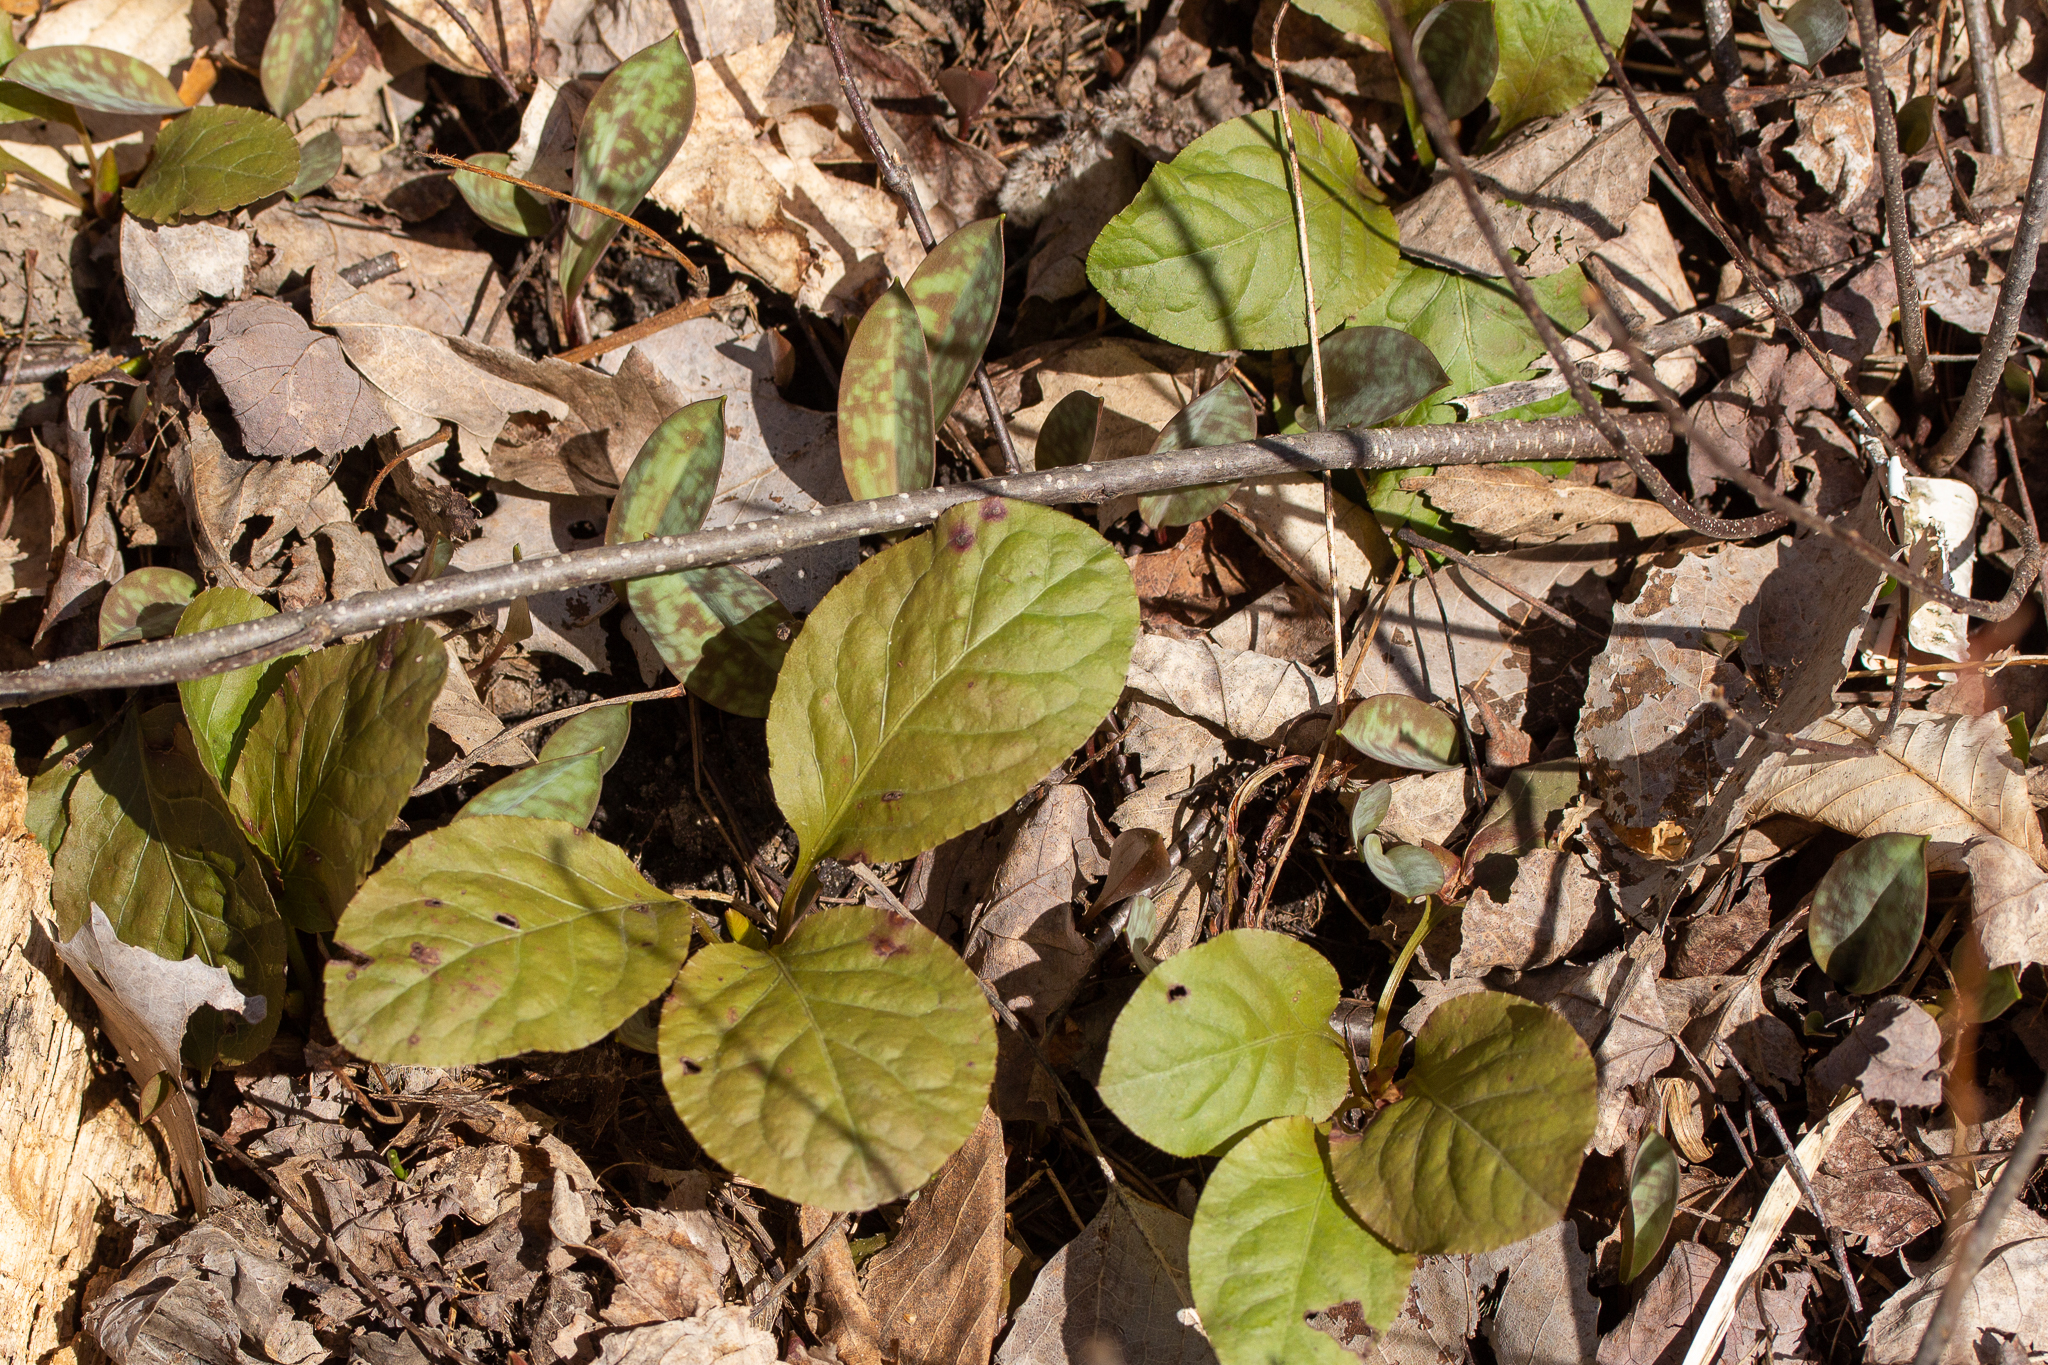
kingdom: Plantae
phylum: Tracheophyta
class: Magnoliopsida
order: Ericales
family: Ericaceae
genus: Pyrola
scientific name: Pyrola elliptica
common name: Shinleaf
